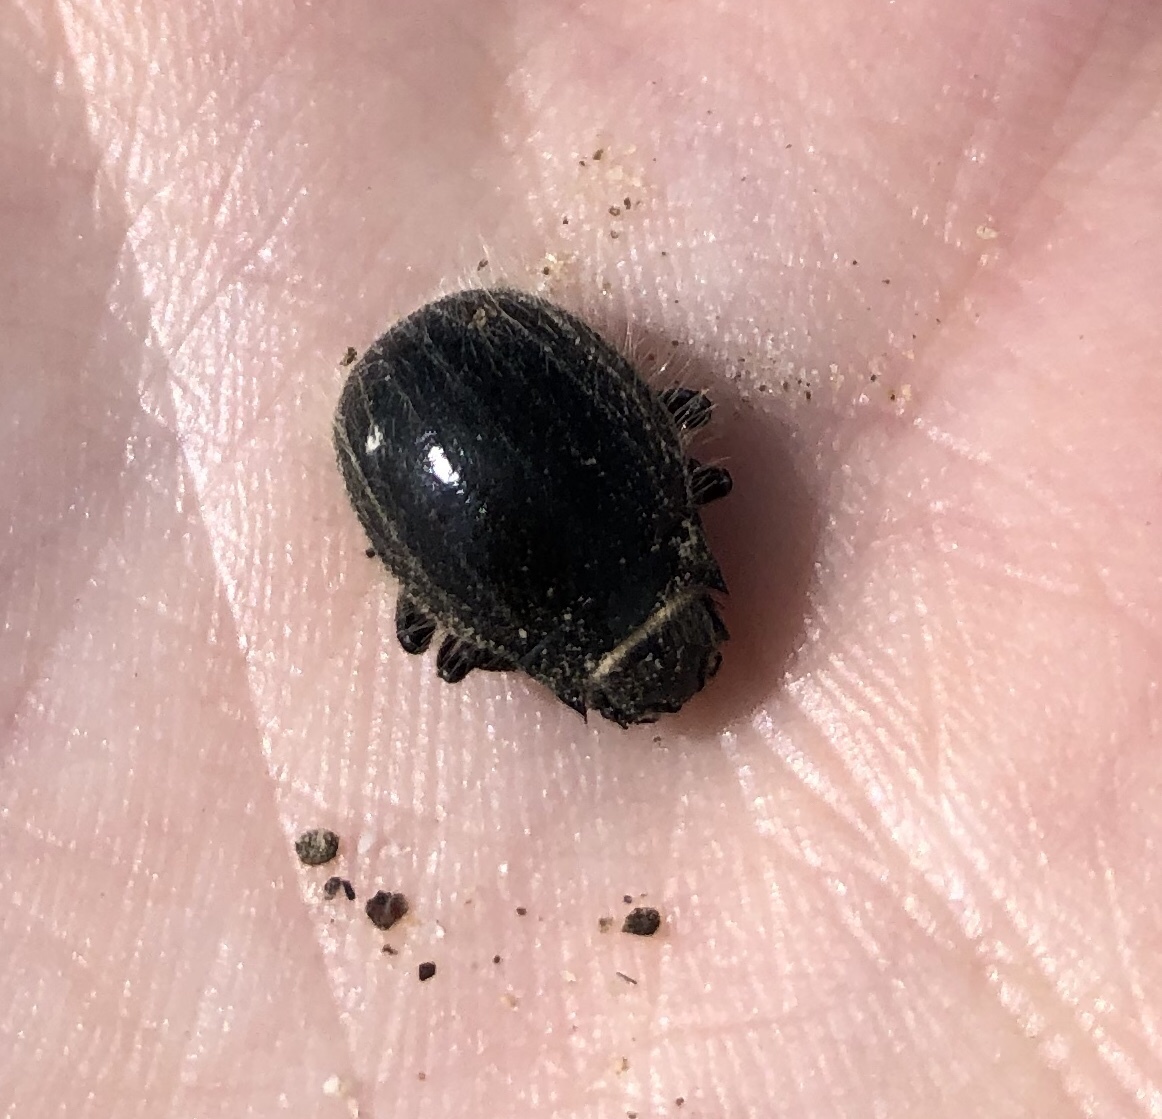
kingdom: Animalia
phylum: Arthropoda
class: Insecta
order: Coleoptera
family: Tenebrionidae
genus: Edrotes
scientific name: Edrotes ventricosus
